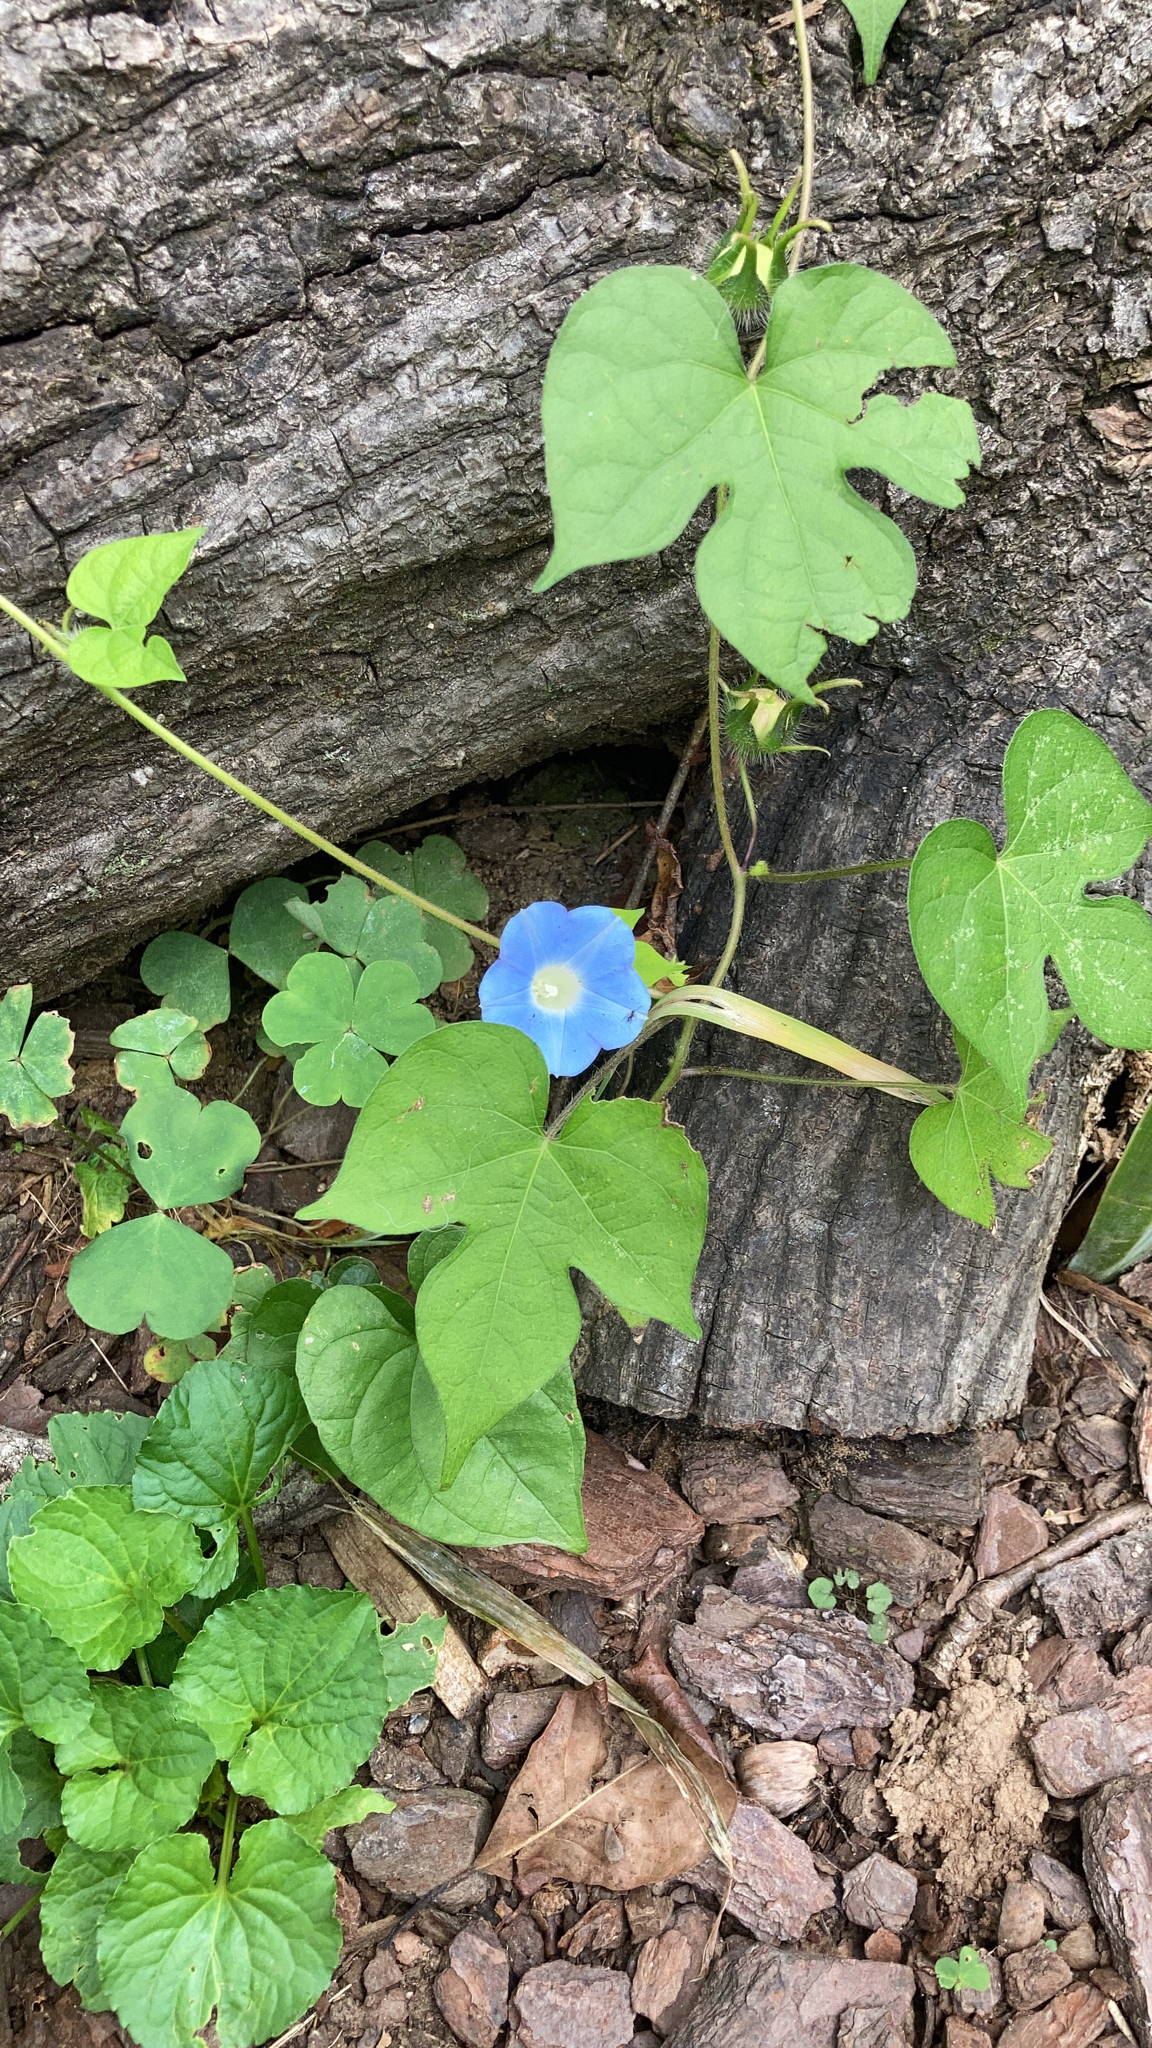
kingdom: Plantae
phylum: Tracheophyta
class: Magnoliopsida
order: Solanales
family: Convolvulaceae
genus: Ipomoea
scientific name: Ipomoea hederacea
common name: Ivy-leaved morning-glory
